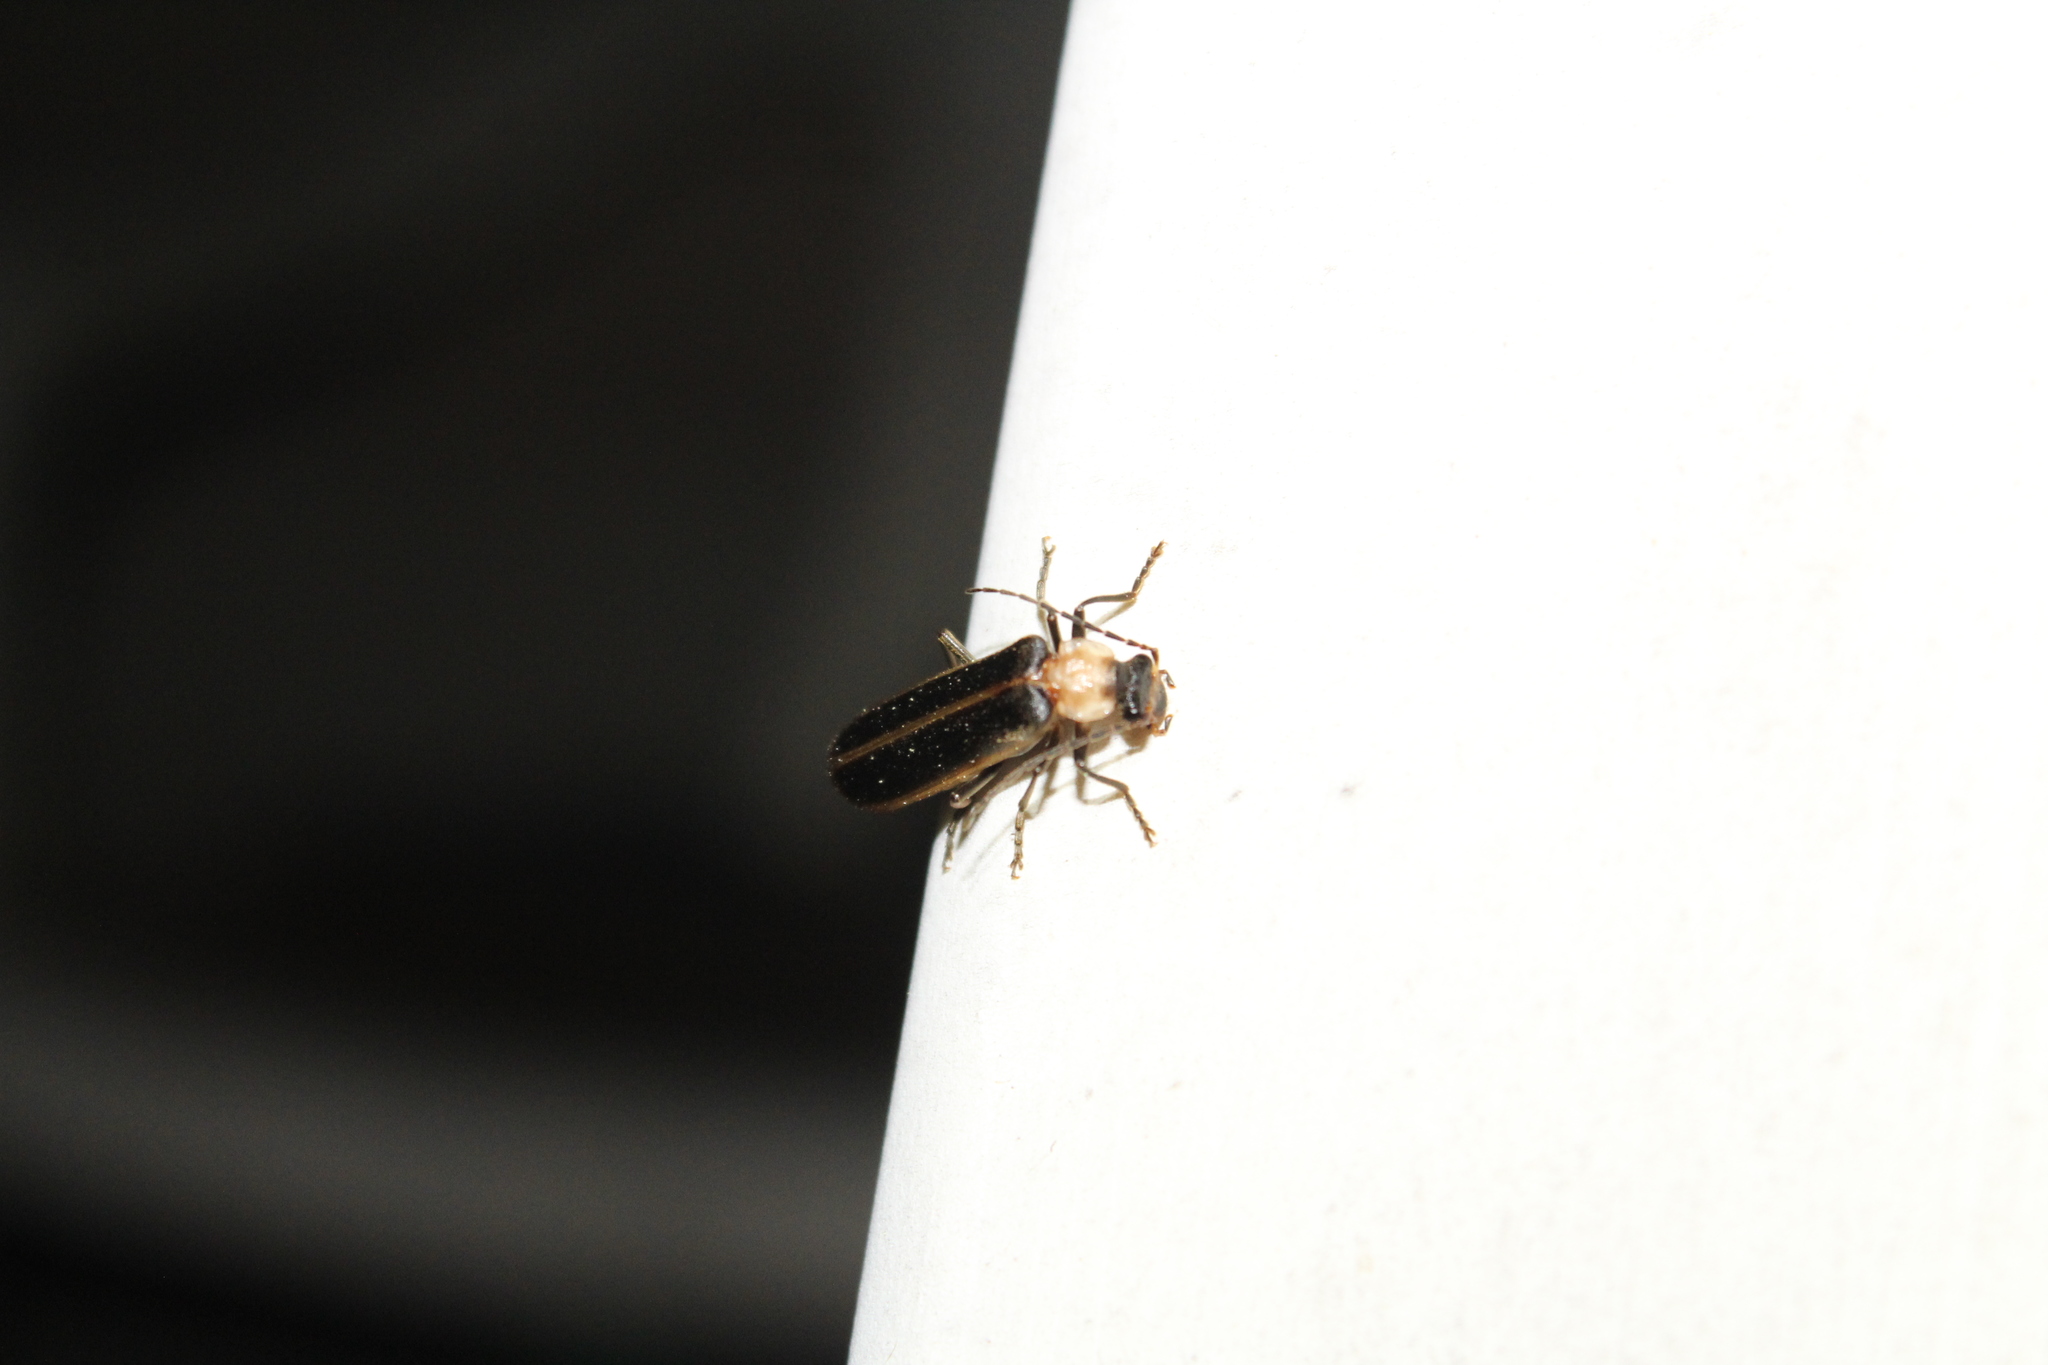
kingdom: Animalia
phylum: Arthropoda
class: Insecta
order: Coleoptera
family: Cantharidae
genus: Podabrus
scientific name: Podabrus flavicollis
